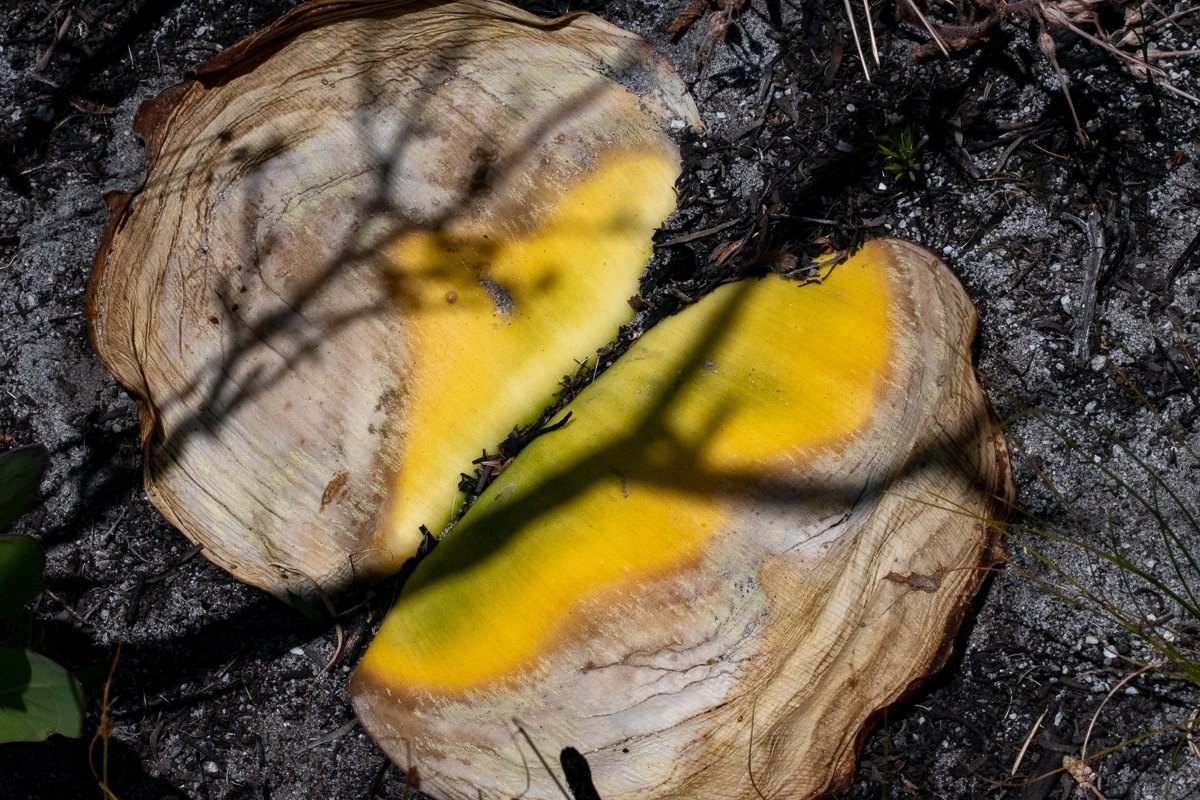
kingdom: Plantae
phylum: Tracheophyta
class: Liliopsida
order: Asparagales
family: Amaryllidaceae
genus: Haemanthus
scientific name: Haemanthus sanguineus
